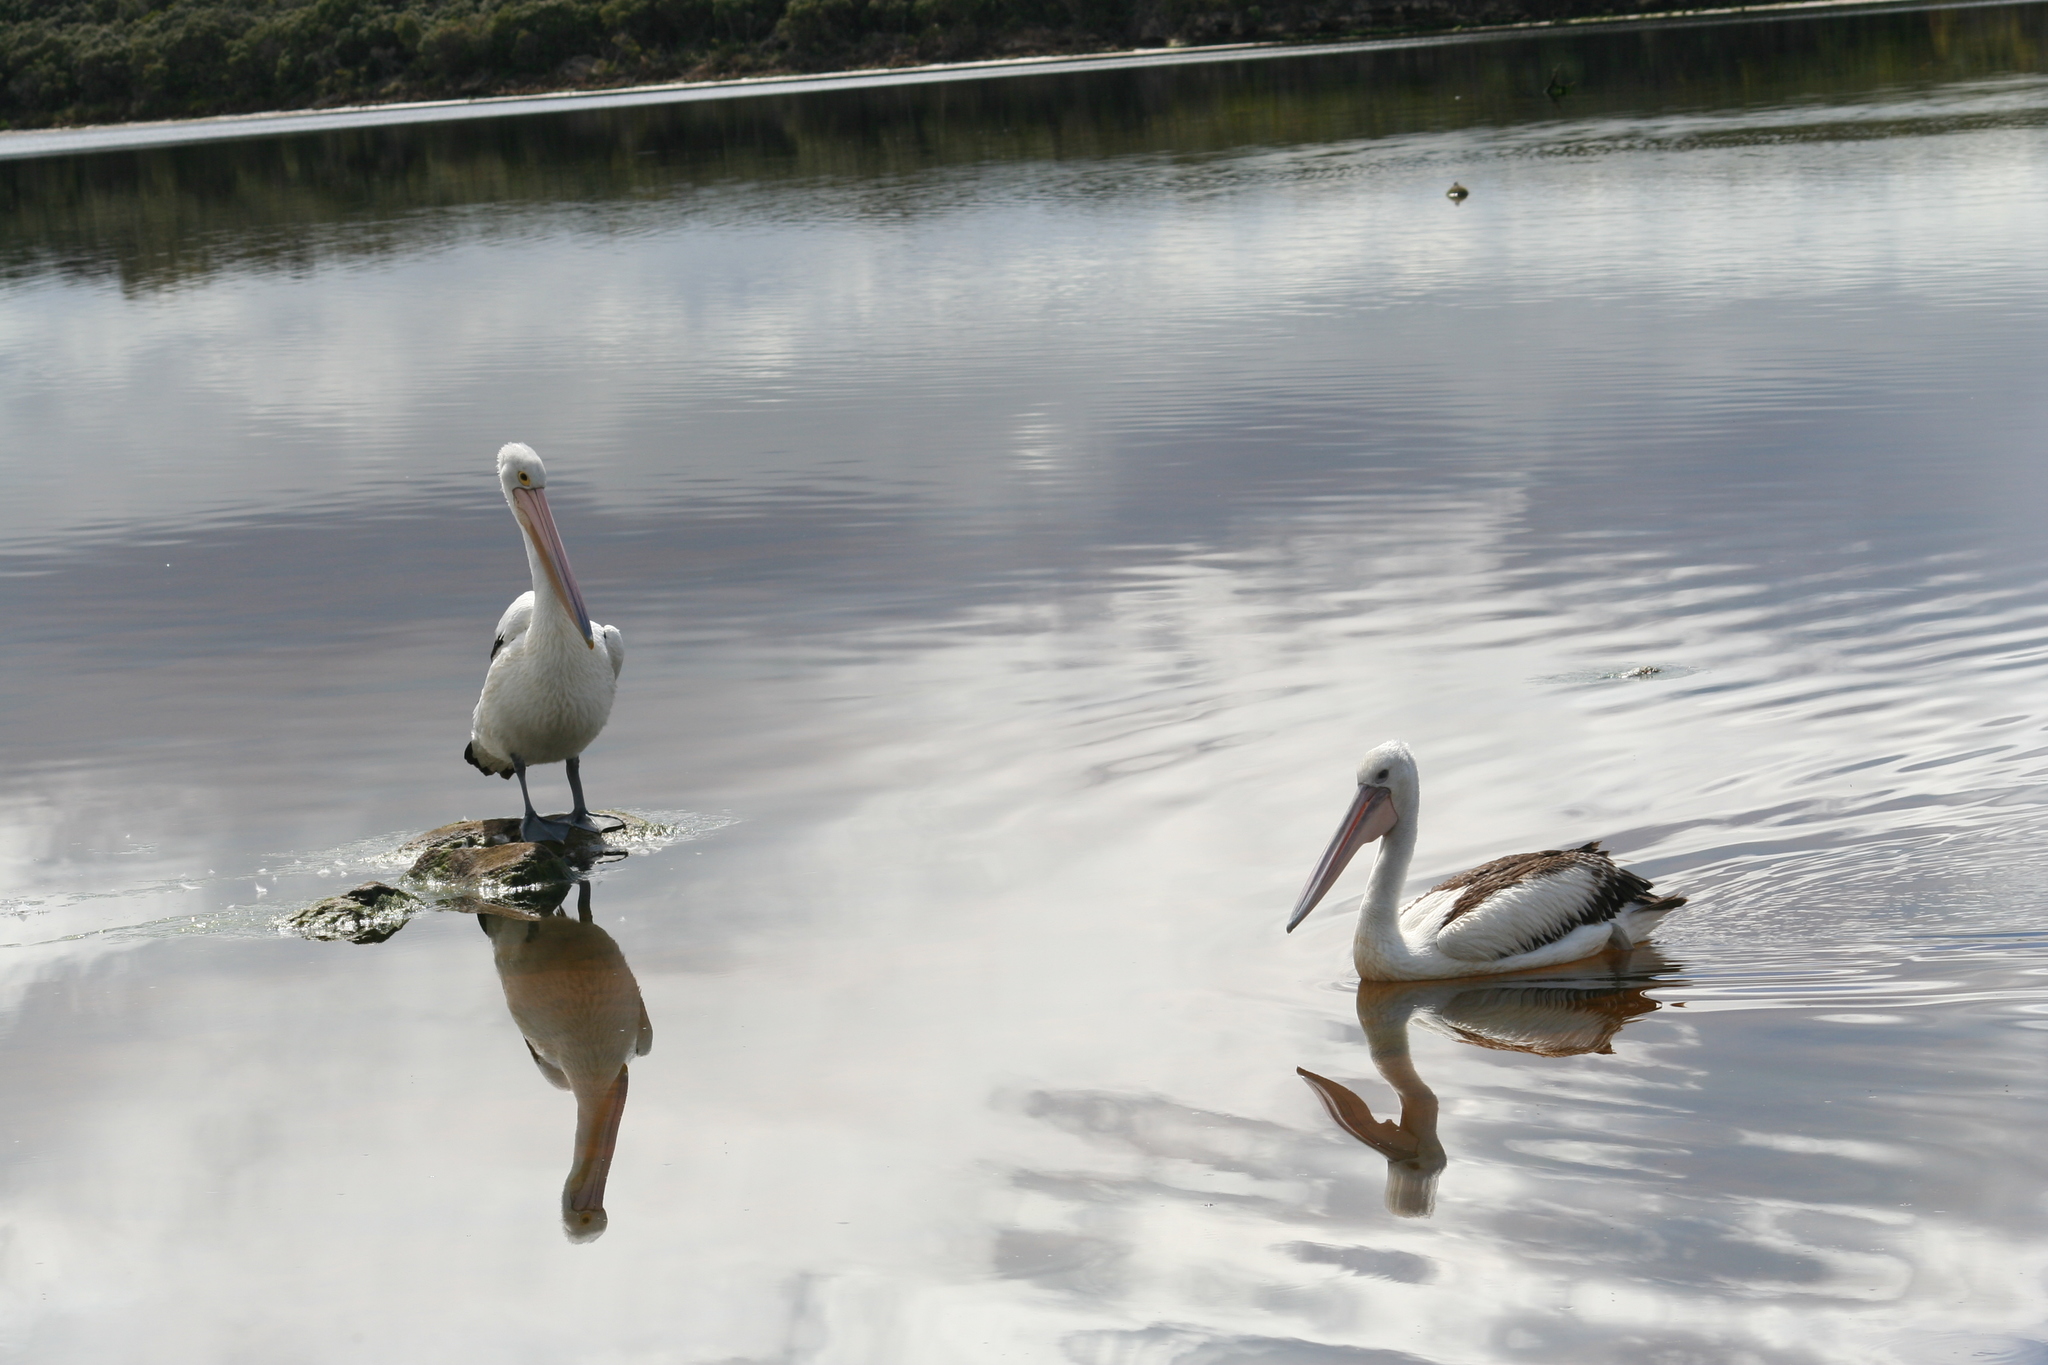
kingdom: Animalia
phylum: Chordata
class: Aves
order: Pelecaniformes
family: Pelecanidae
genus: Pelecanus
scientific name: Pelecanus conspicillatus
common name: Australian pelican
